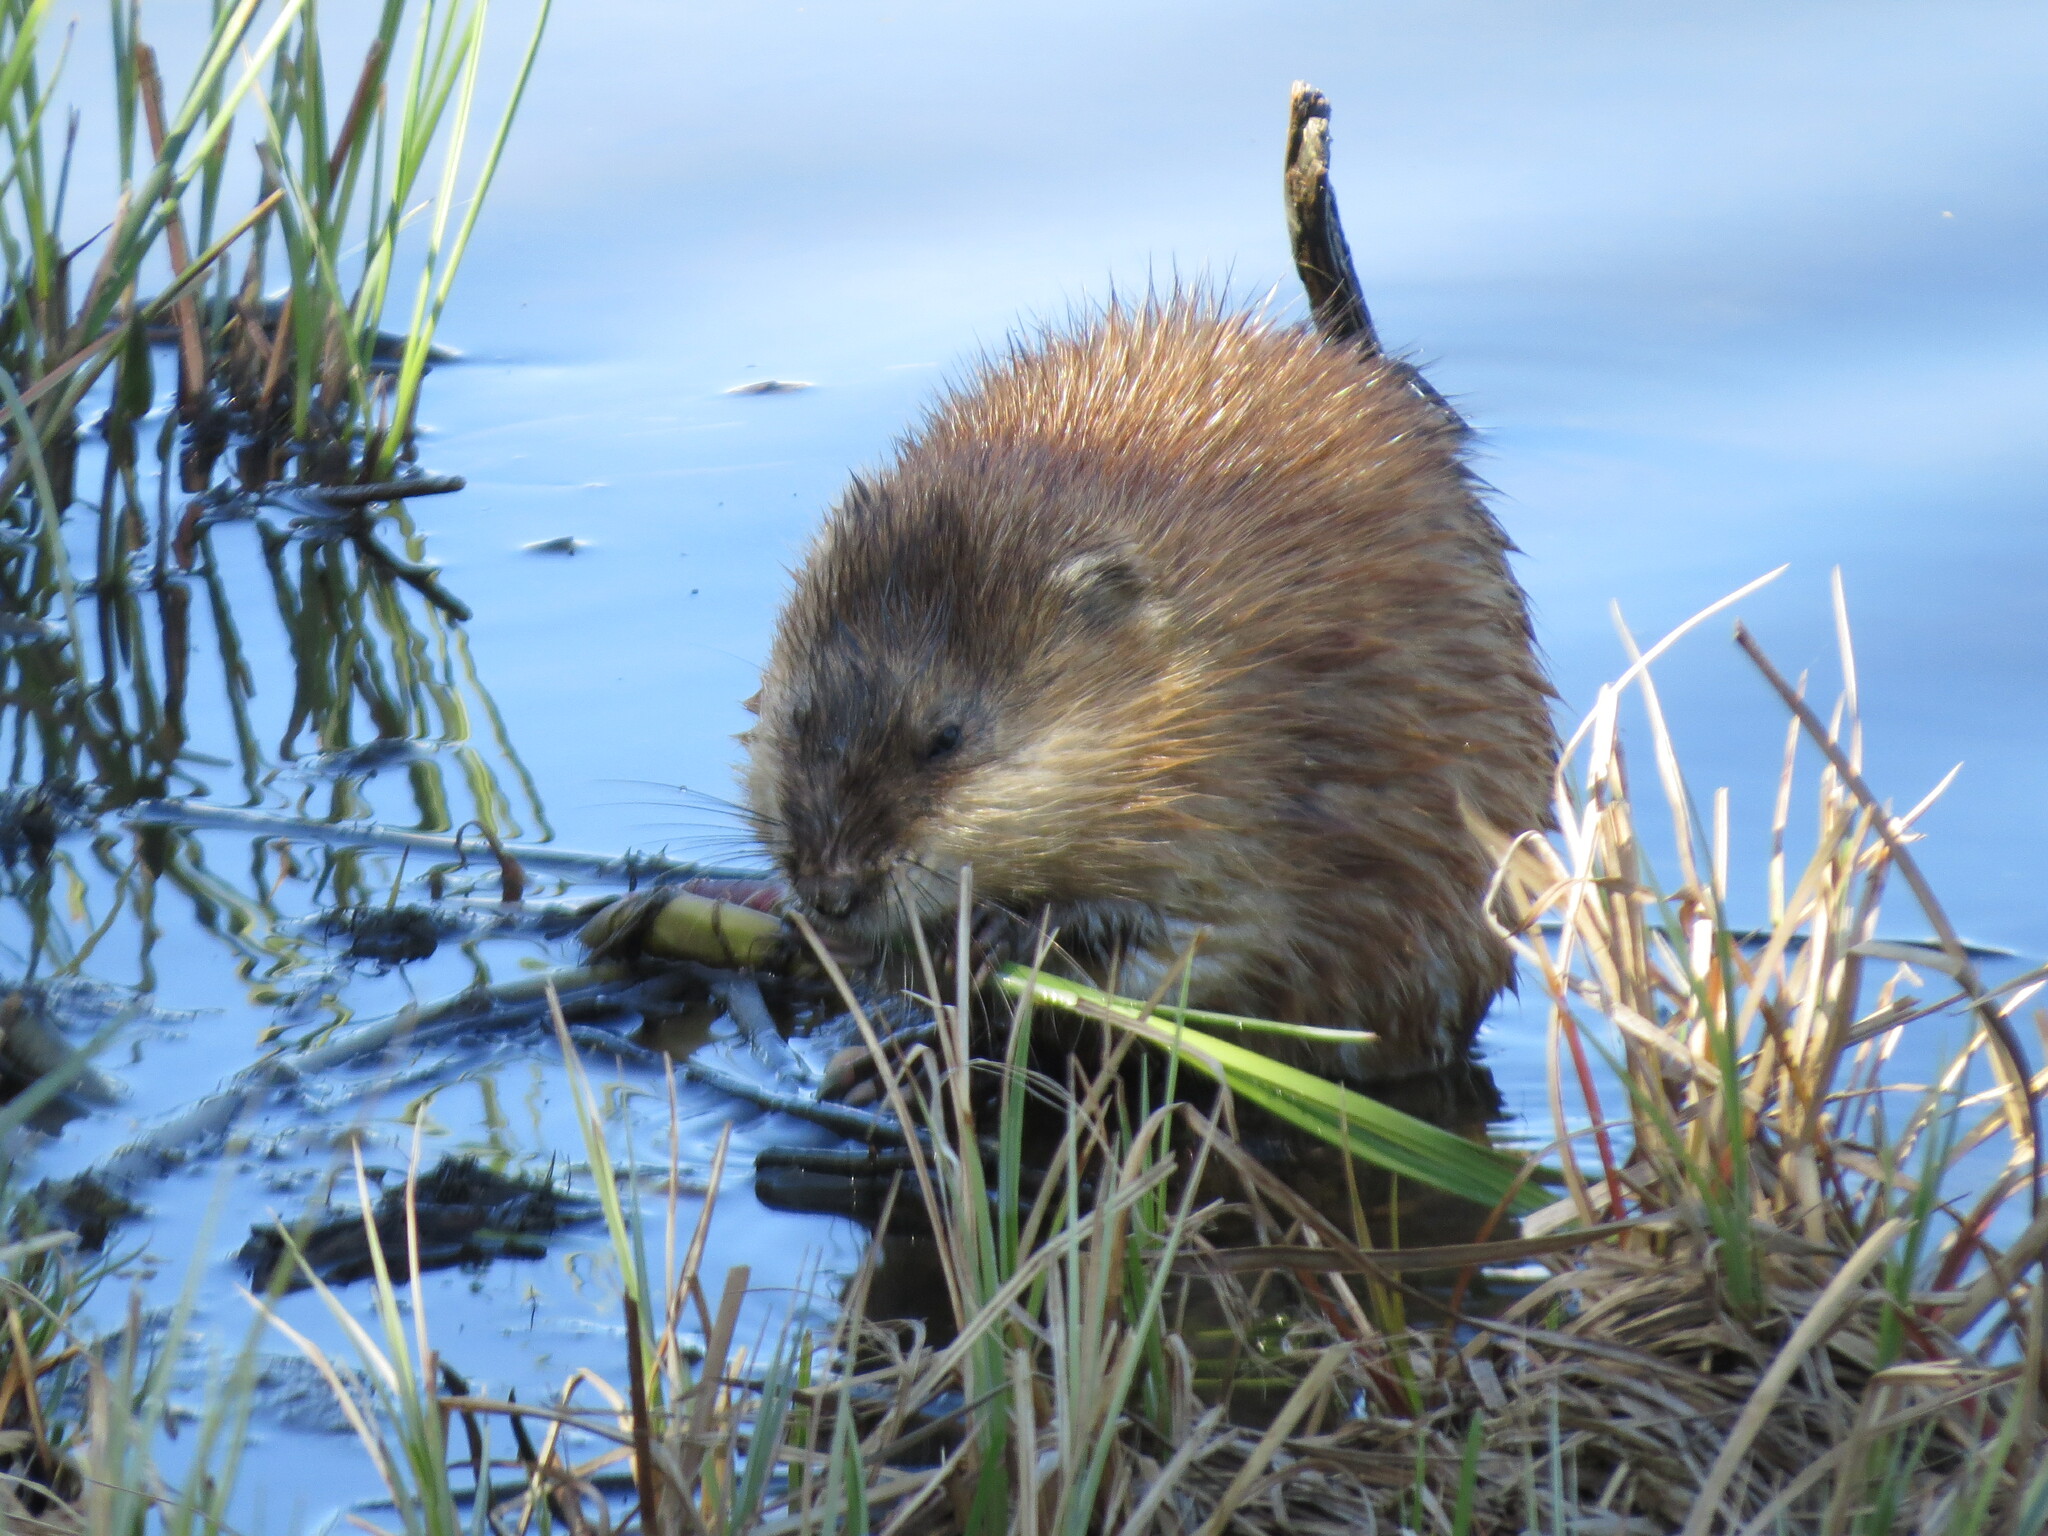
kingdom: Animalia
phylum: Chordata
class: Mammalia
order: Rodentia
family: Cricetidae
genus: Ondatra
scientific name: Ondatra zibethicus
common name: Muskrat
